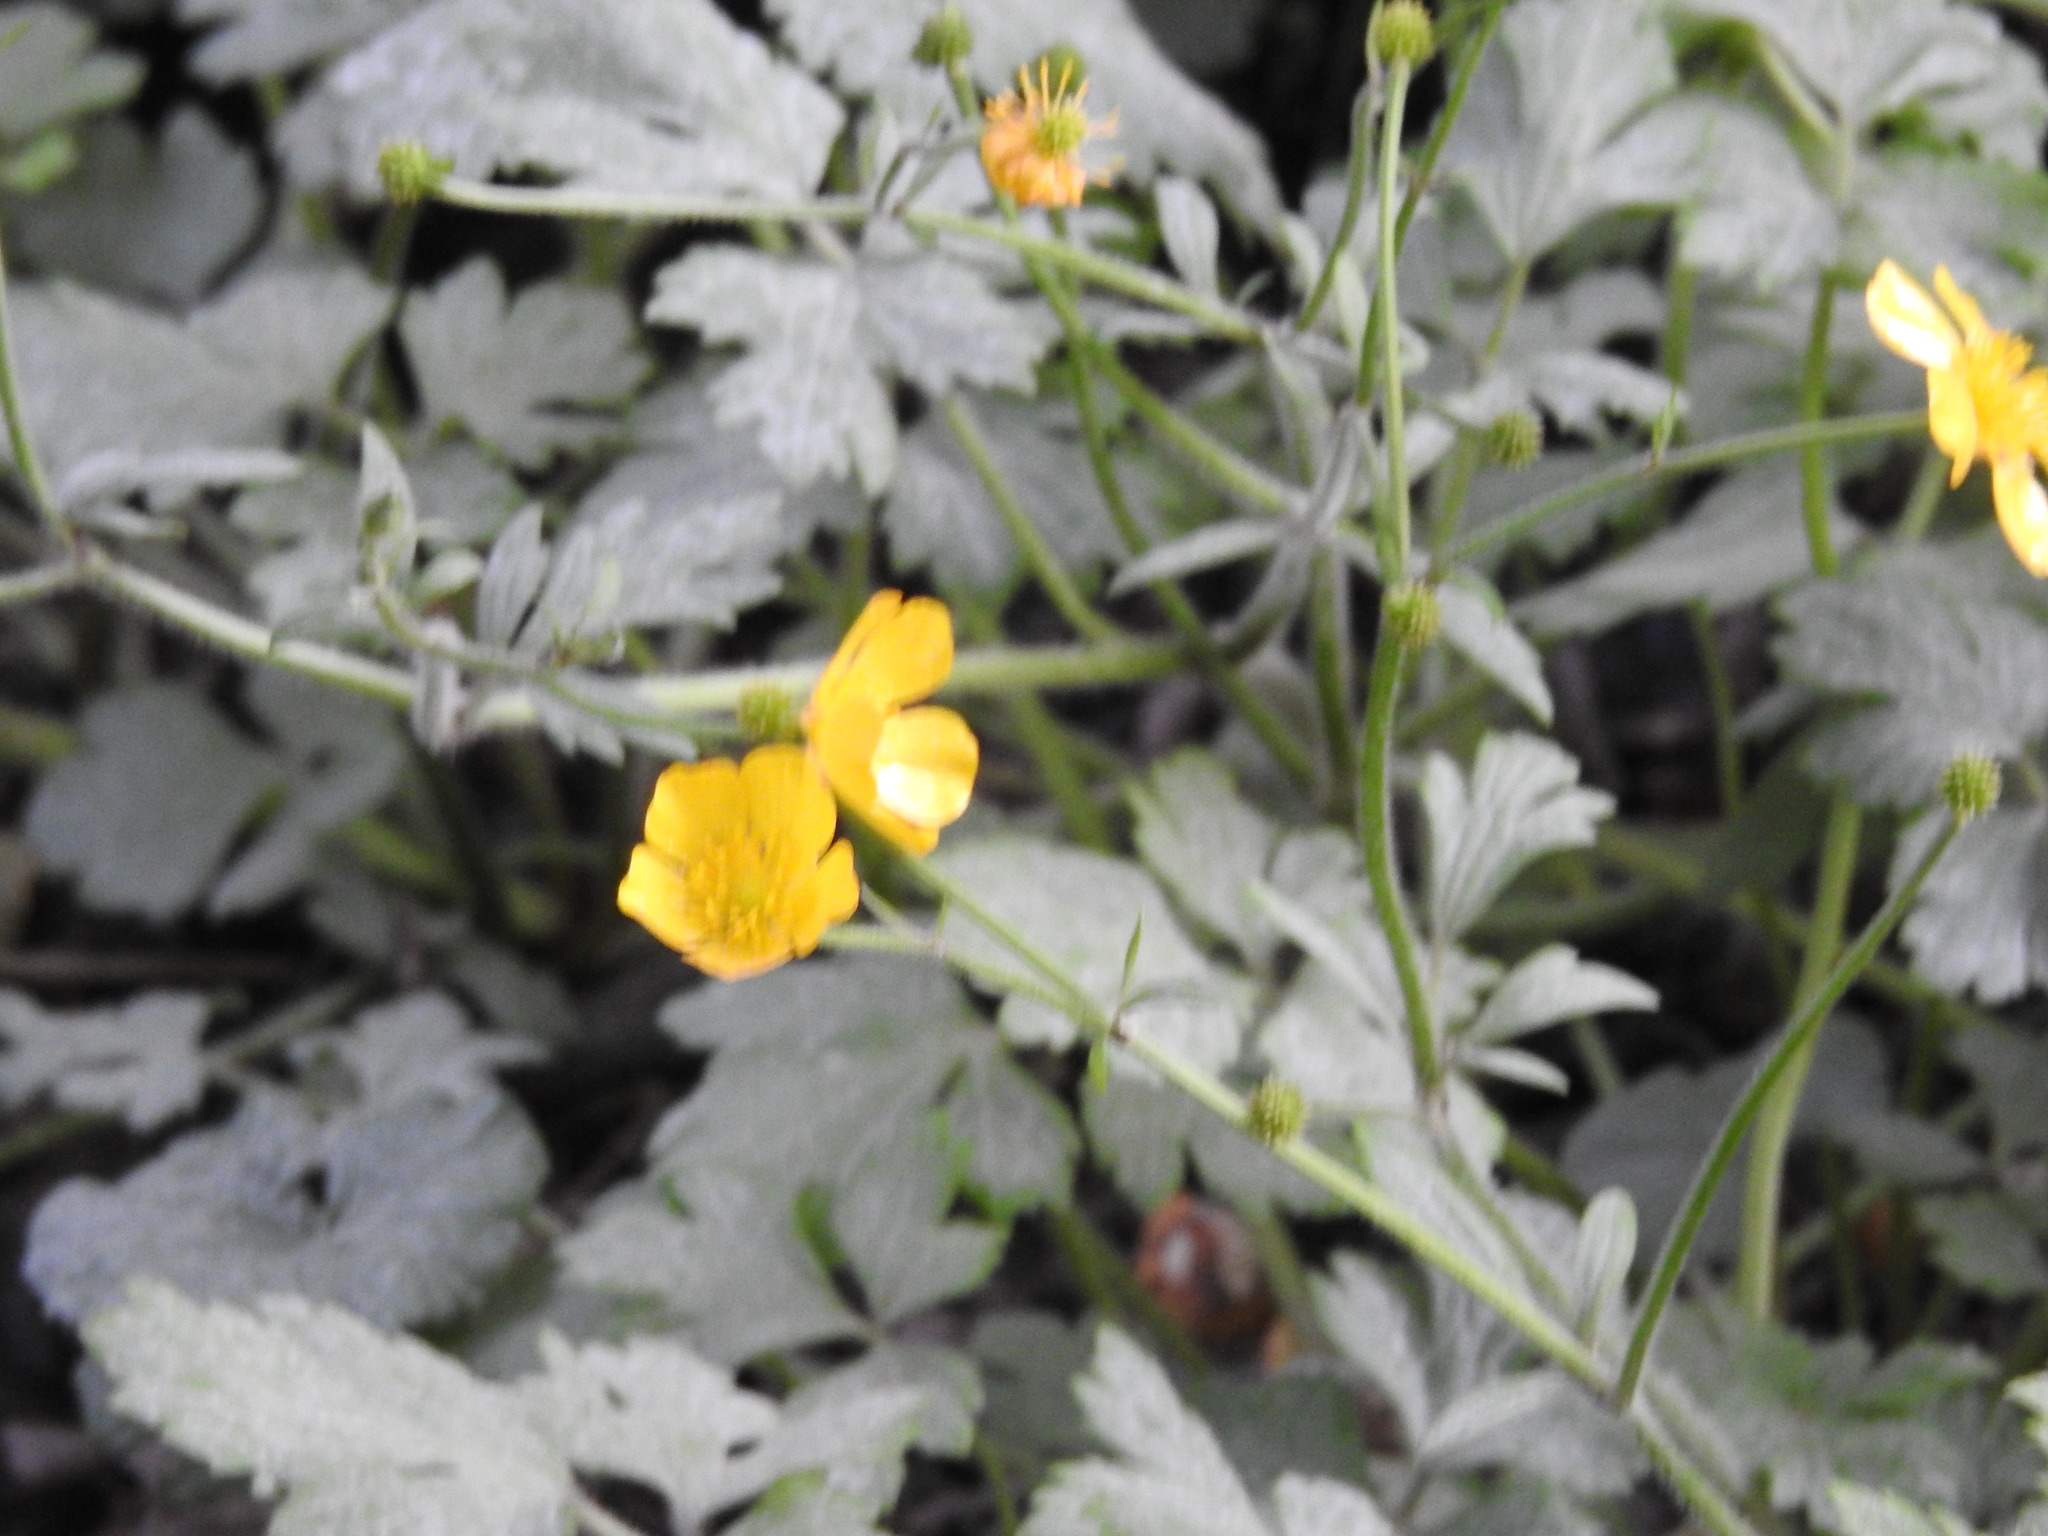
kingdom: Plantae
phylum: Tracheophyta
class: Magnoliopsida
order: Ranunculales
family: Ranunculaceae
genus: Ranunculus
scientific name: Ranunculus repens
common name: Creeping buttercup
